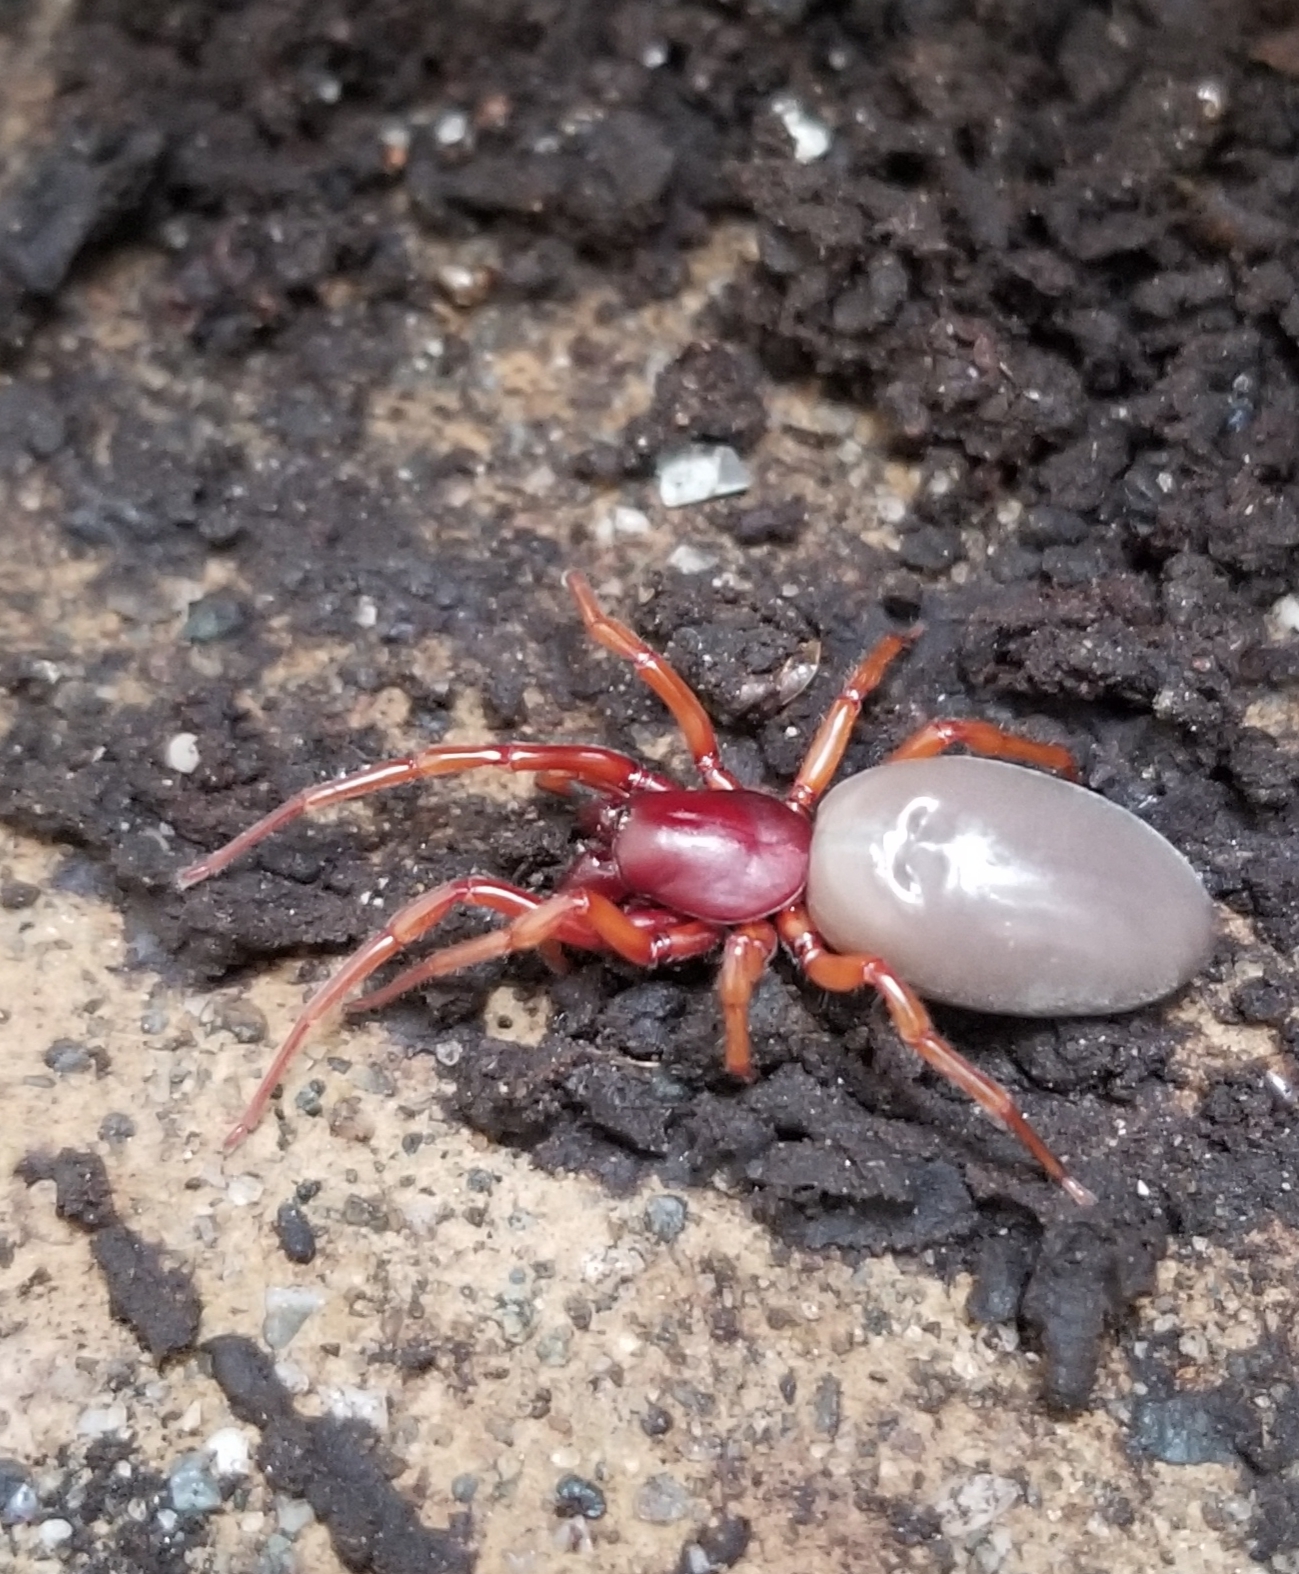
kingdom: Animalia
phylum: Arthropoda
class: Arachnida
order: Araneae
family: Dysderidae
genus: Dysdera
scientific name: Dysdera crocata
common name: Woodlouse spider
